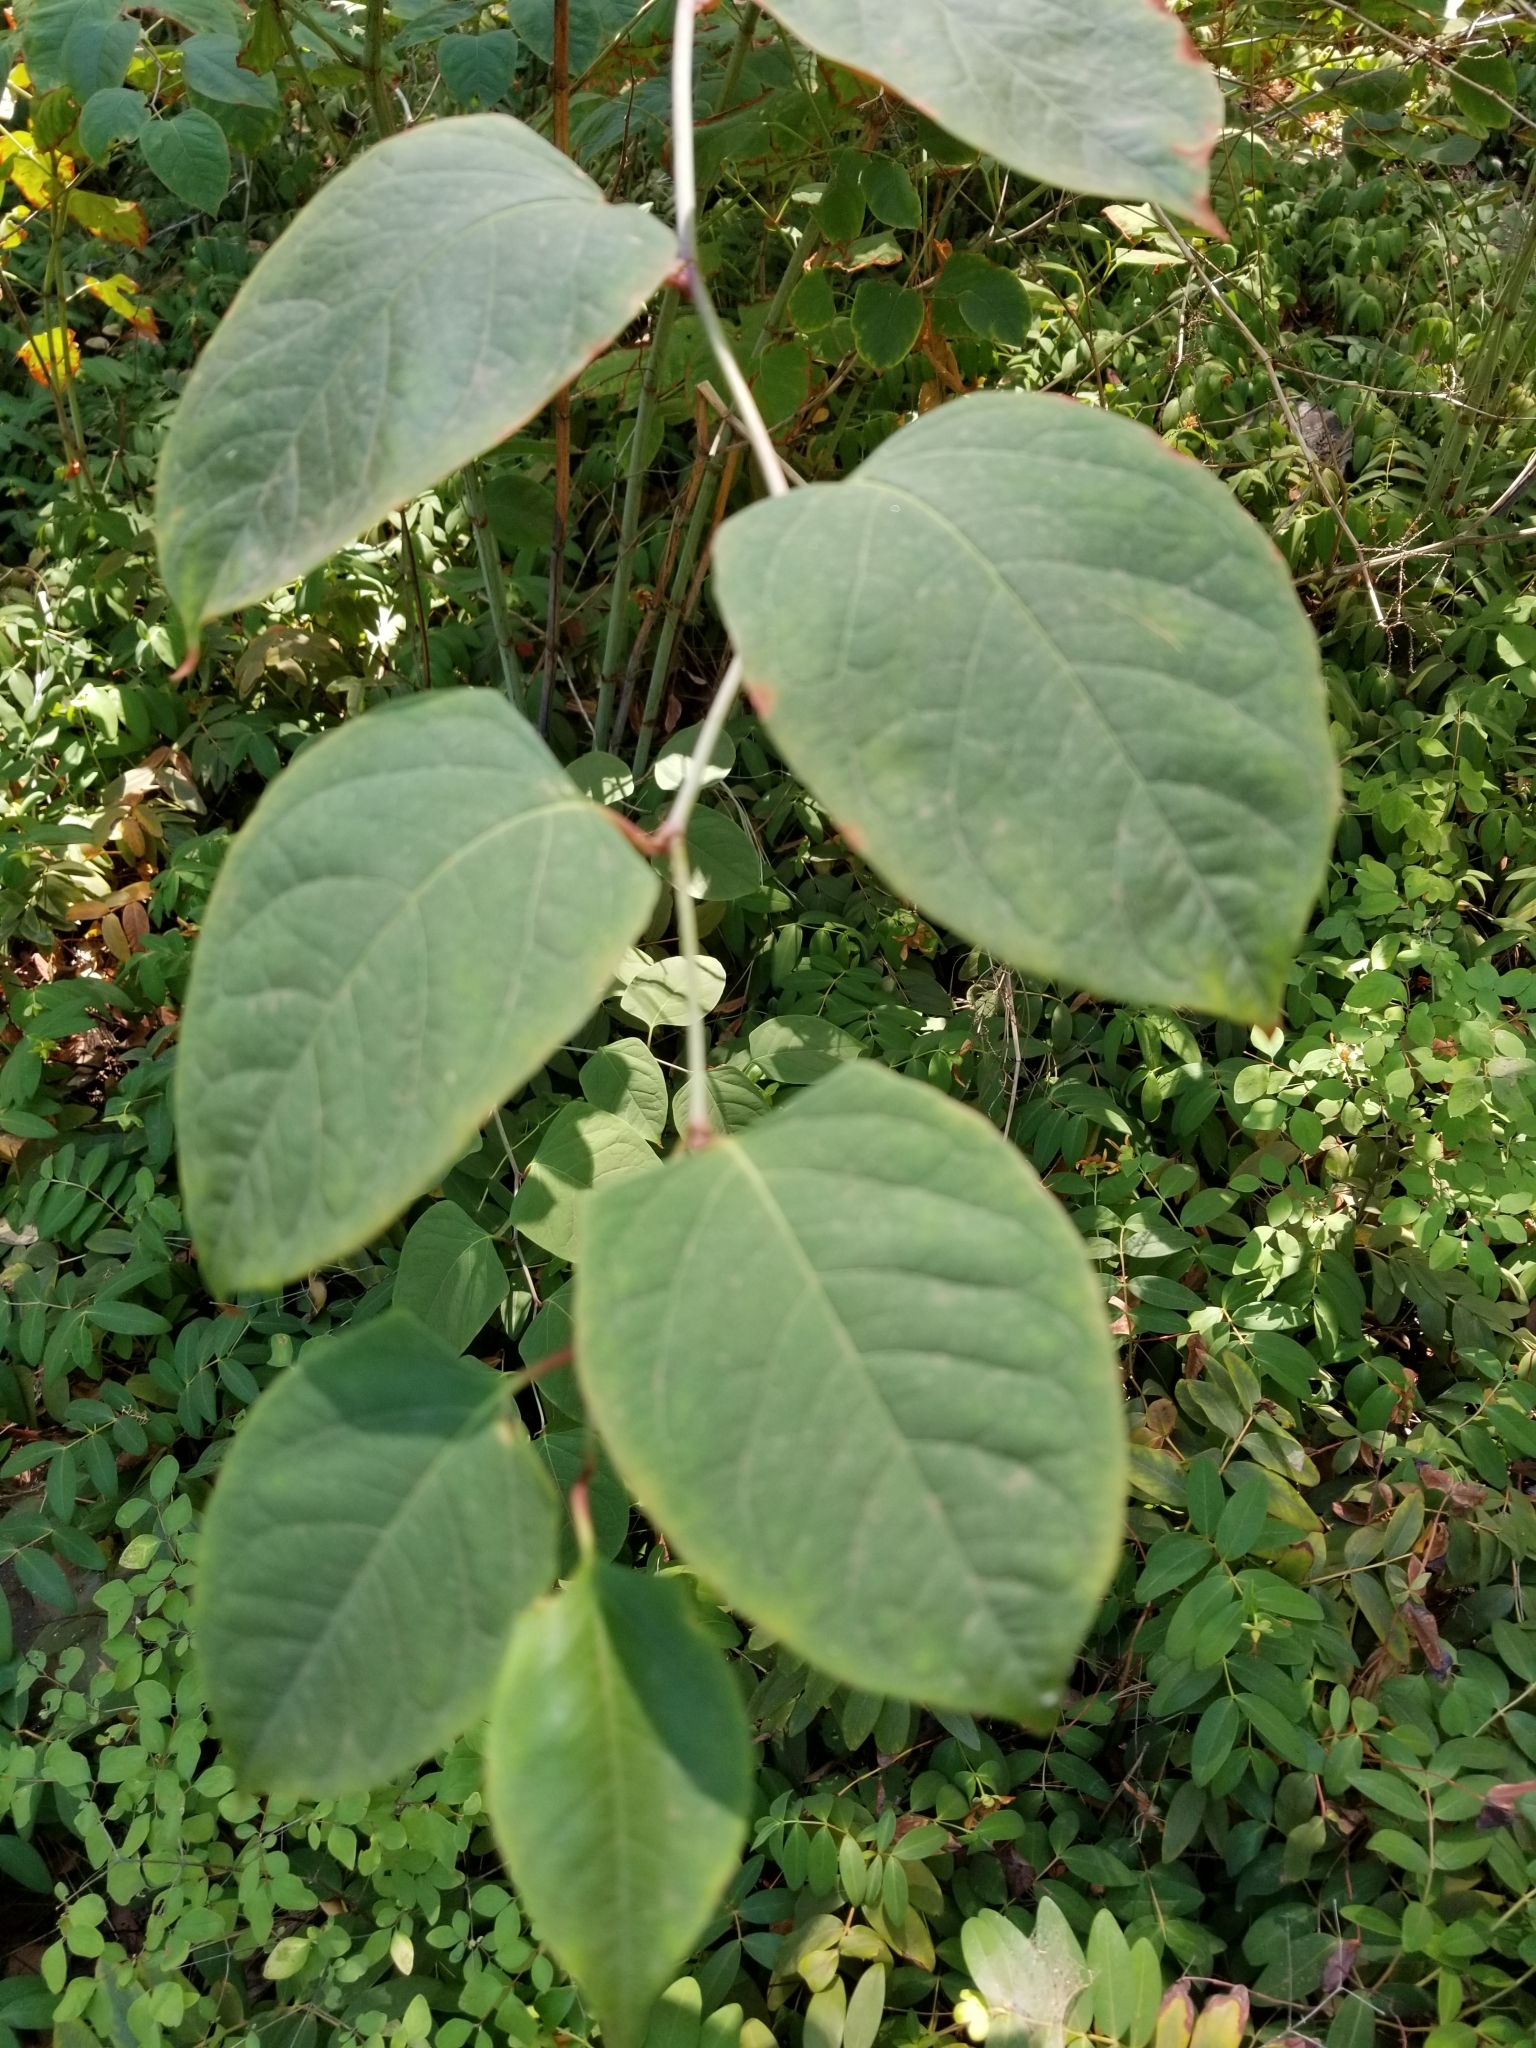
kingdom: Plantae
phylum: Tracheophyta
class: Magnoliopsida
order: Caryophyllales
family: Polygonaceae
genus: Reynoutria
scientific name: Reynoutria japonica
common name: Japanese knotweed
